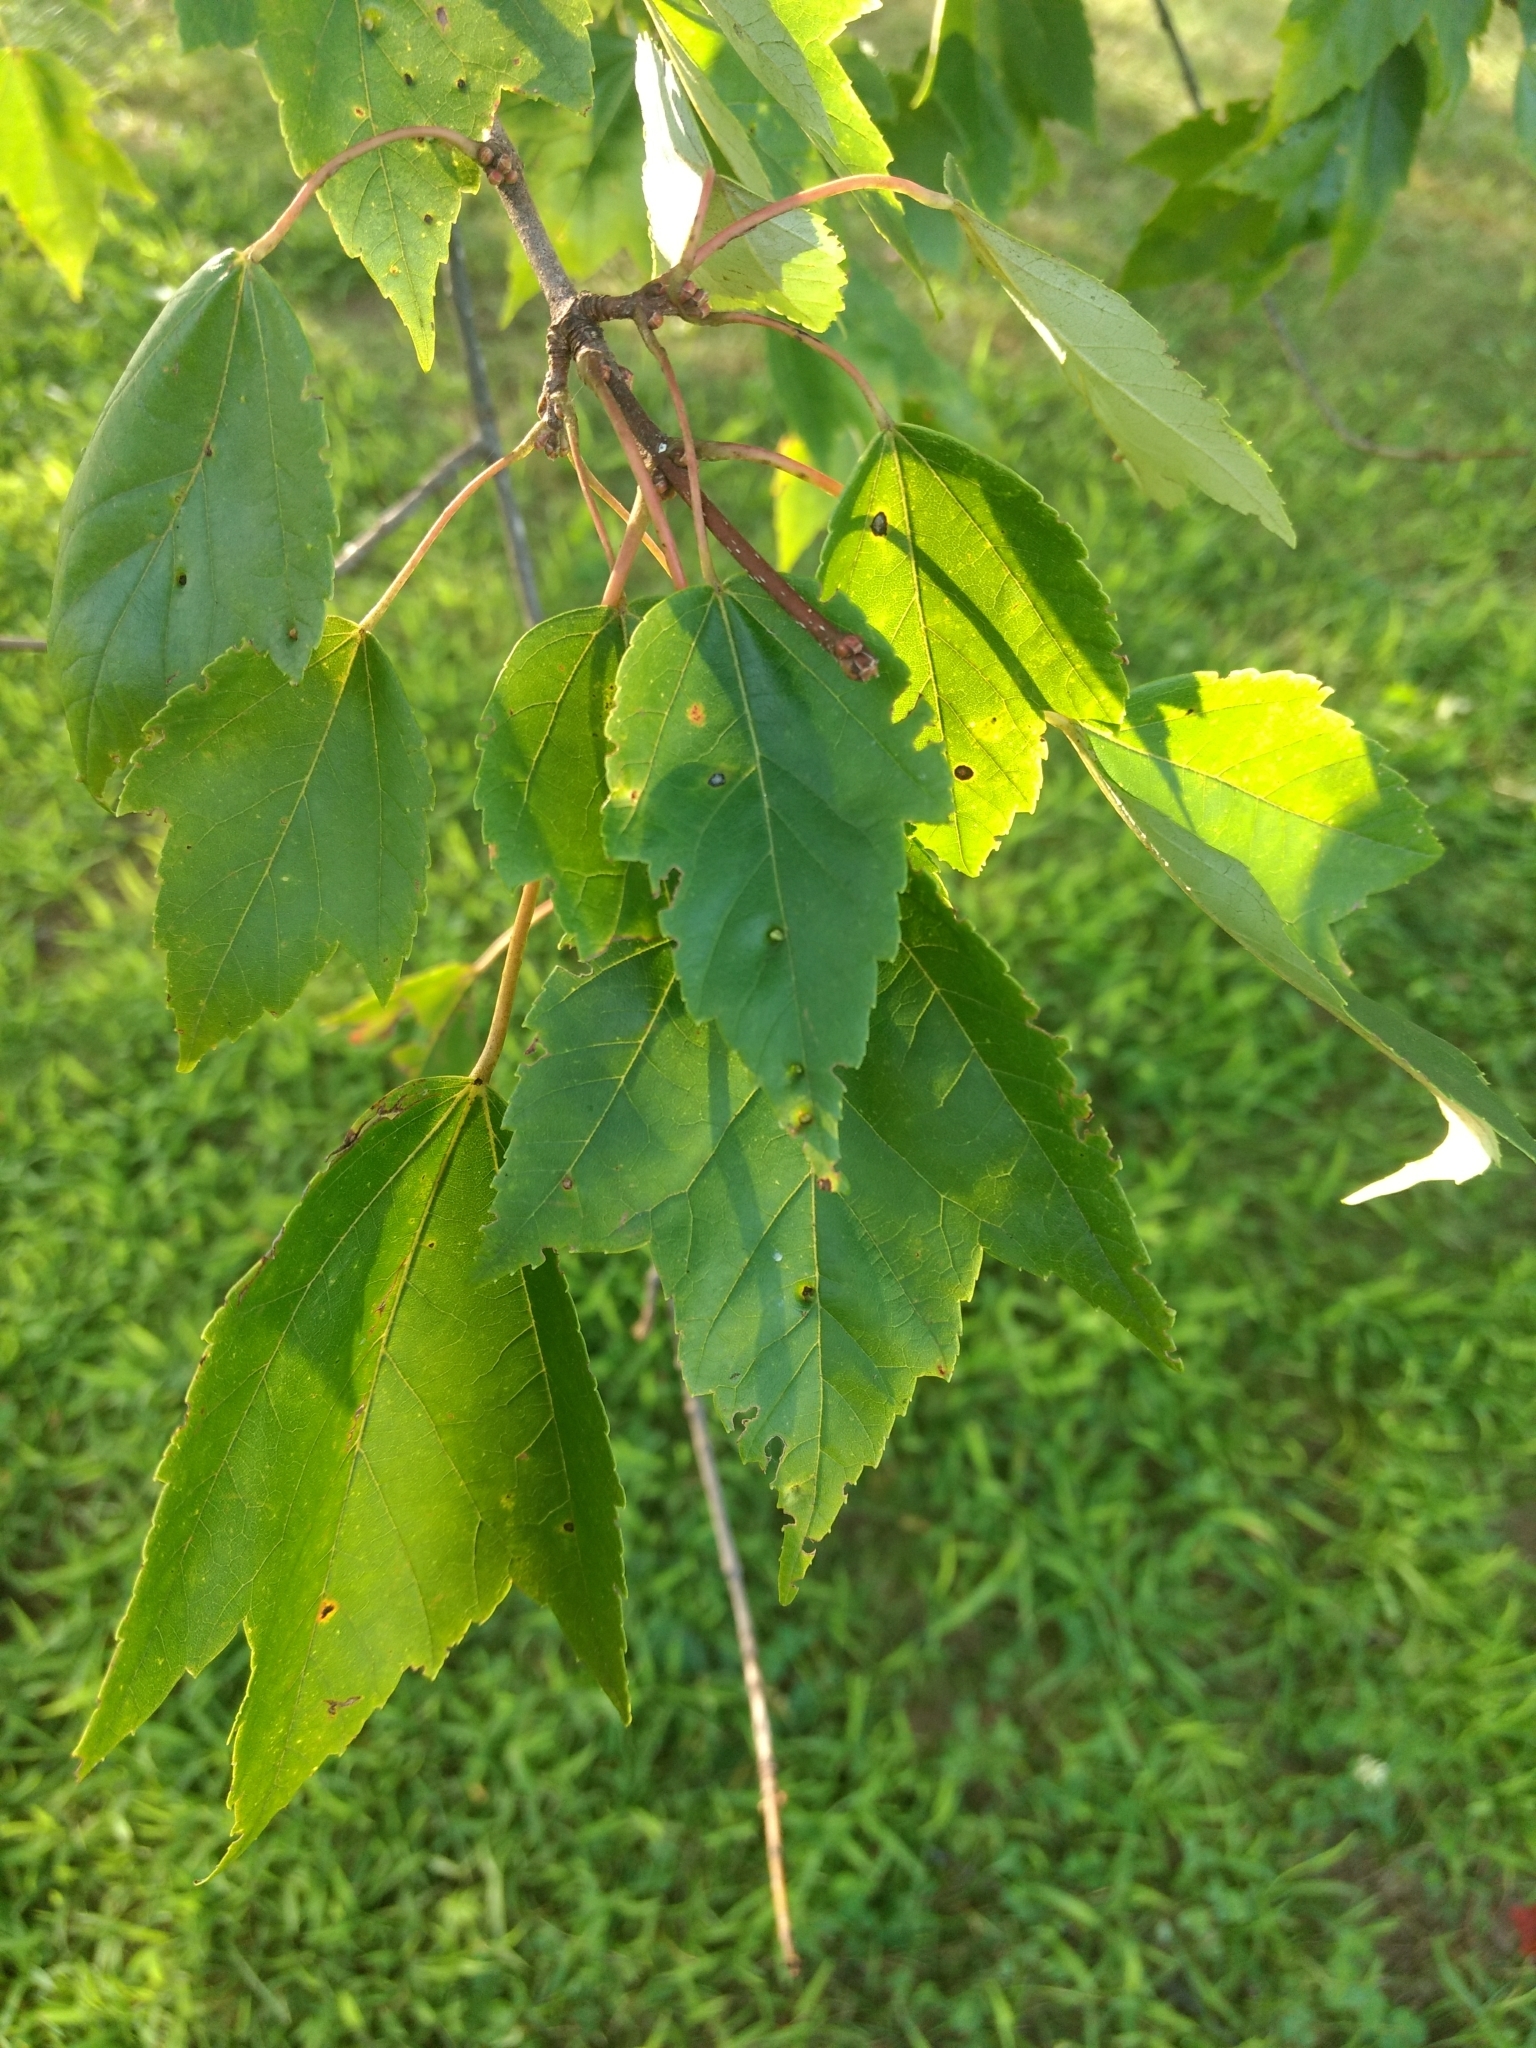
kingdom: Plantae
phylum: Tracheophyta
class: Magnoliopsida
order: Sapindales
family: Sapindaceae
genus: Acer
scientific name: Acer rubrum
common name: Red maple
